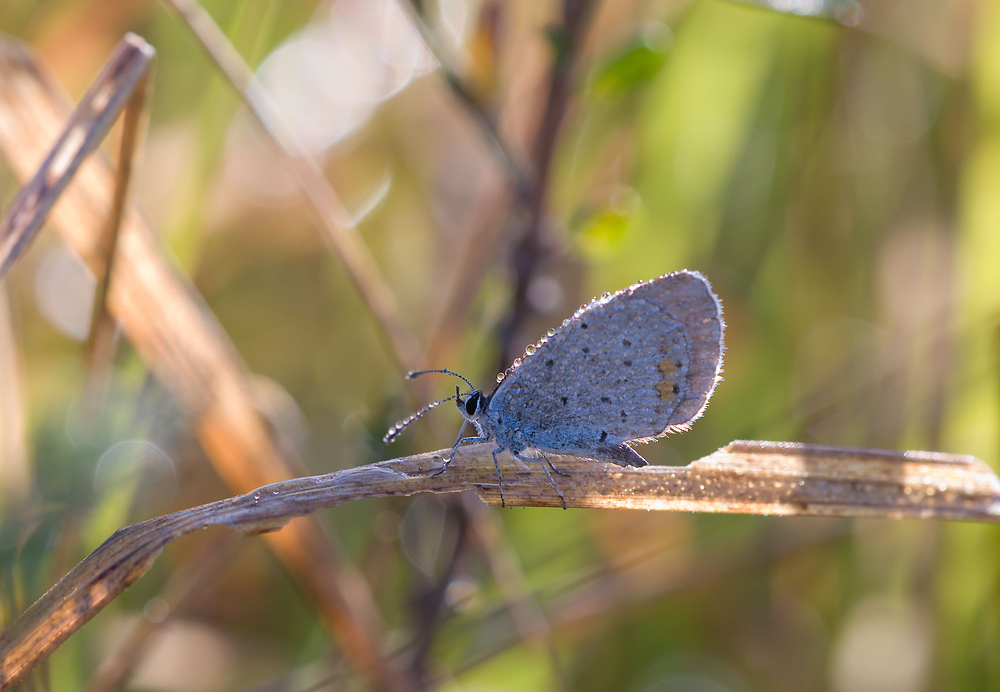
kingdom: Animalia
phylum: Arthropoda
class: Insecta
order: Lepidoptera
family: Lycaenidae
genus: Elkalyce
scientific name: Elkalyce argiades
